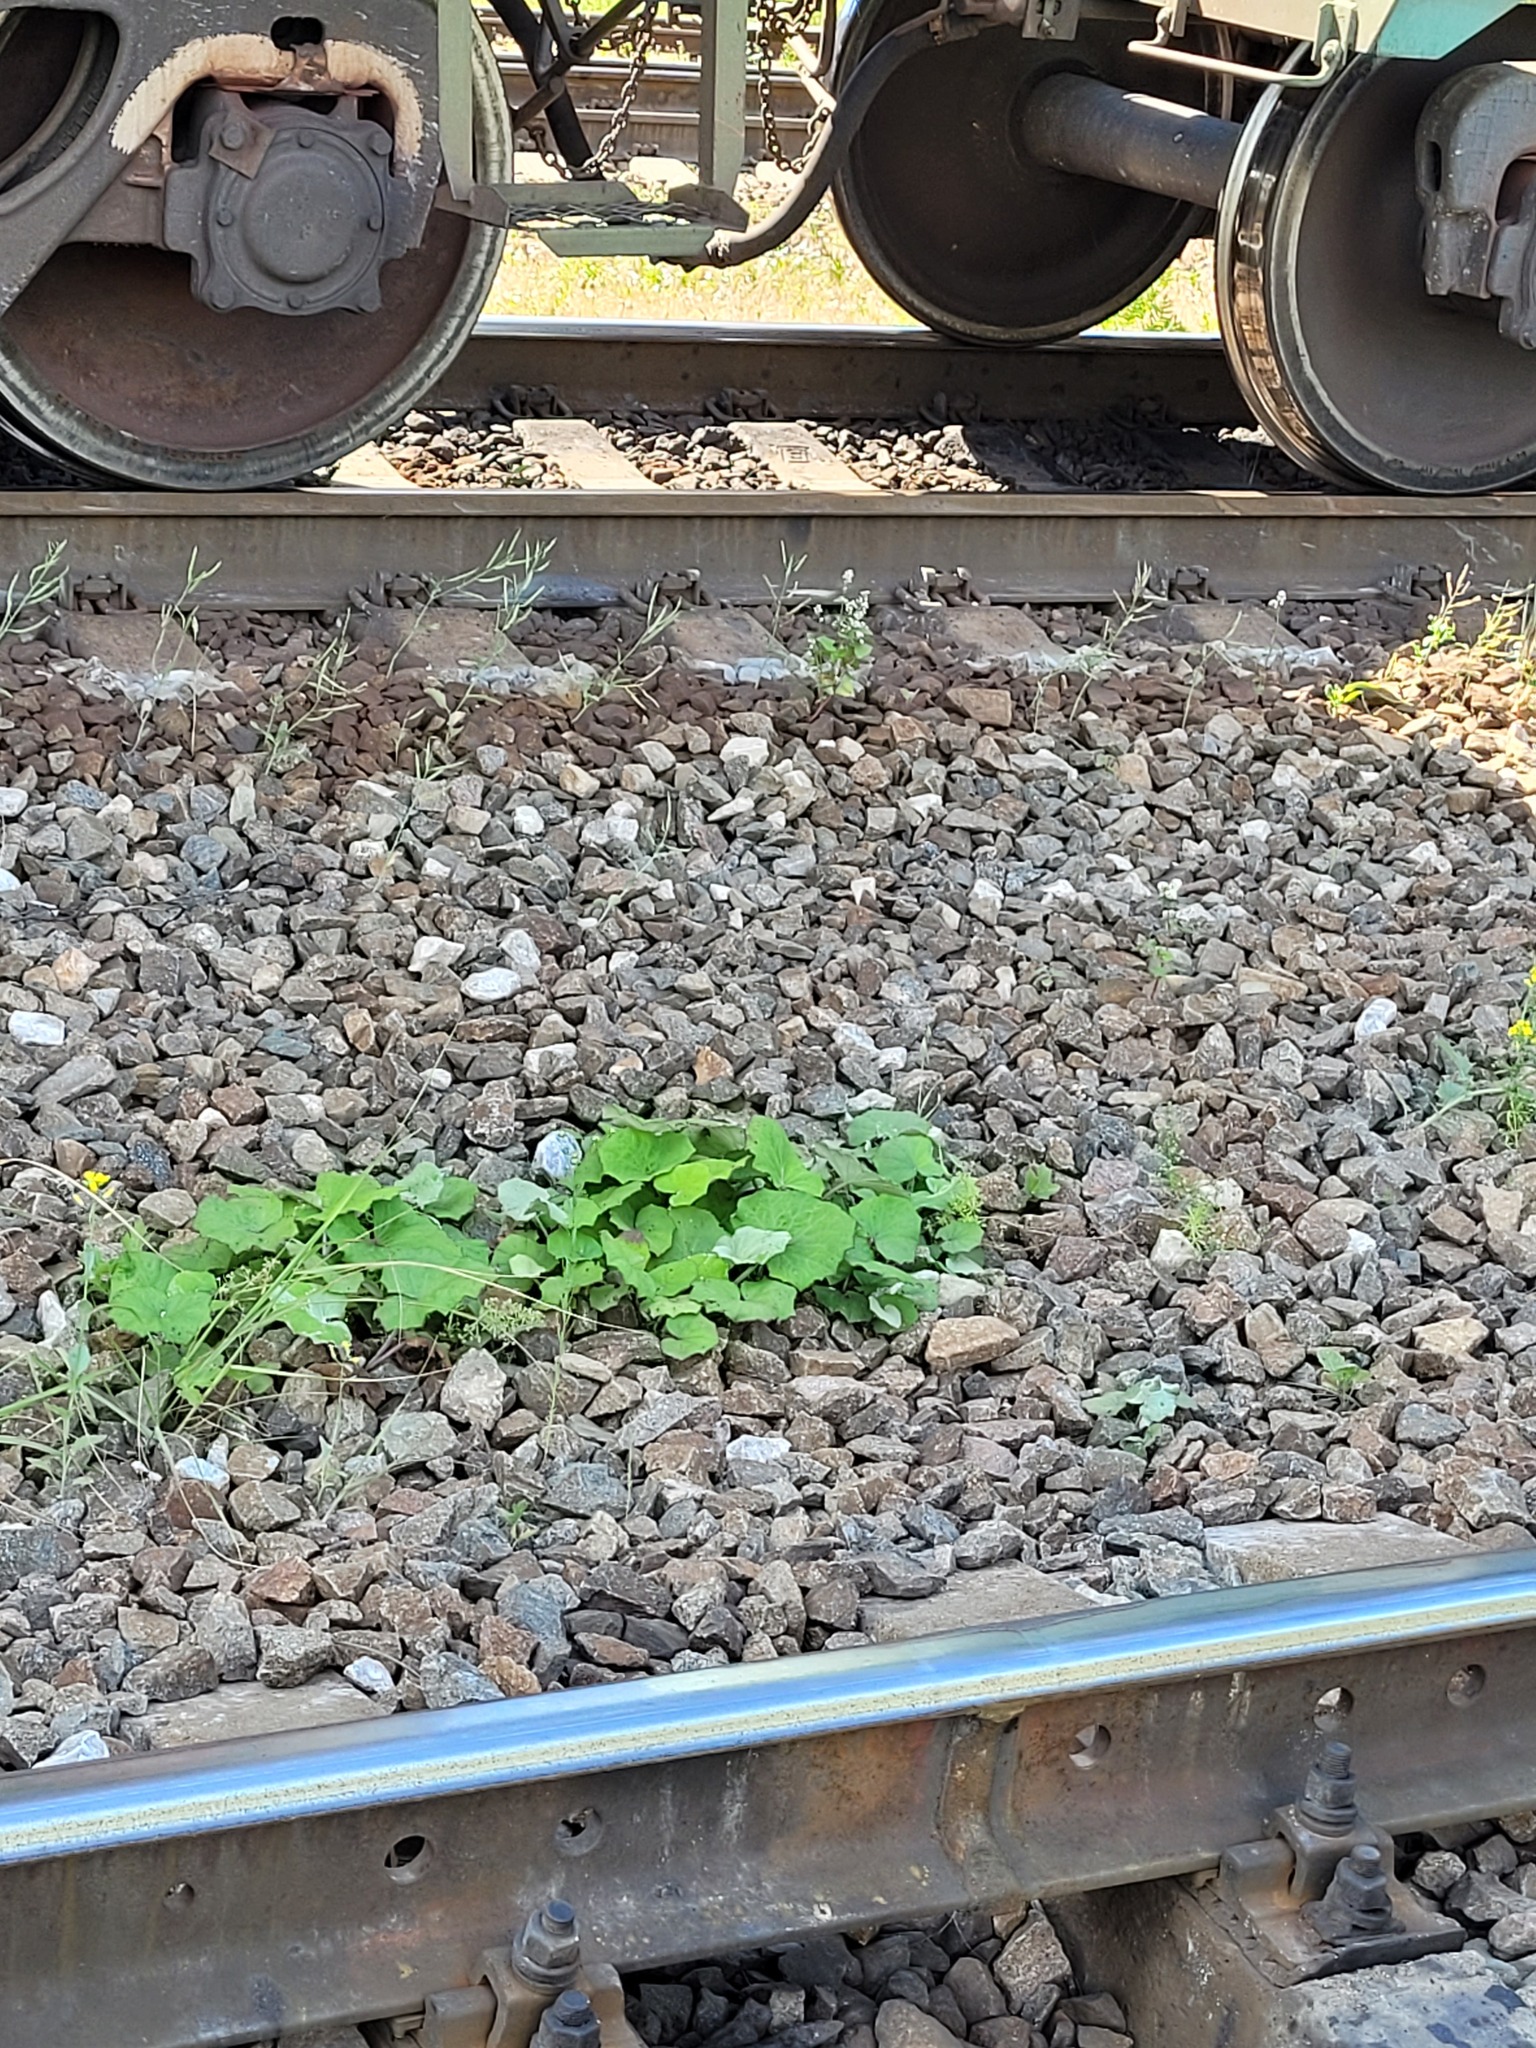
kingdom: Plantae
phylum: Tracheophyta
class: Magnoliopsida
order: Asterales
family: Asteraceae
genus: Tussilago
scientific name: Tussilago farfara
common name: Coltsfoot
